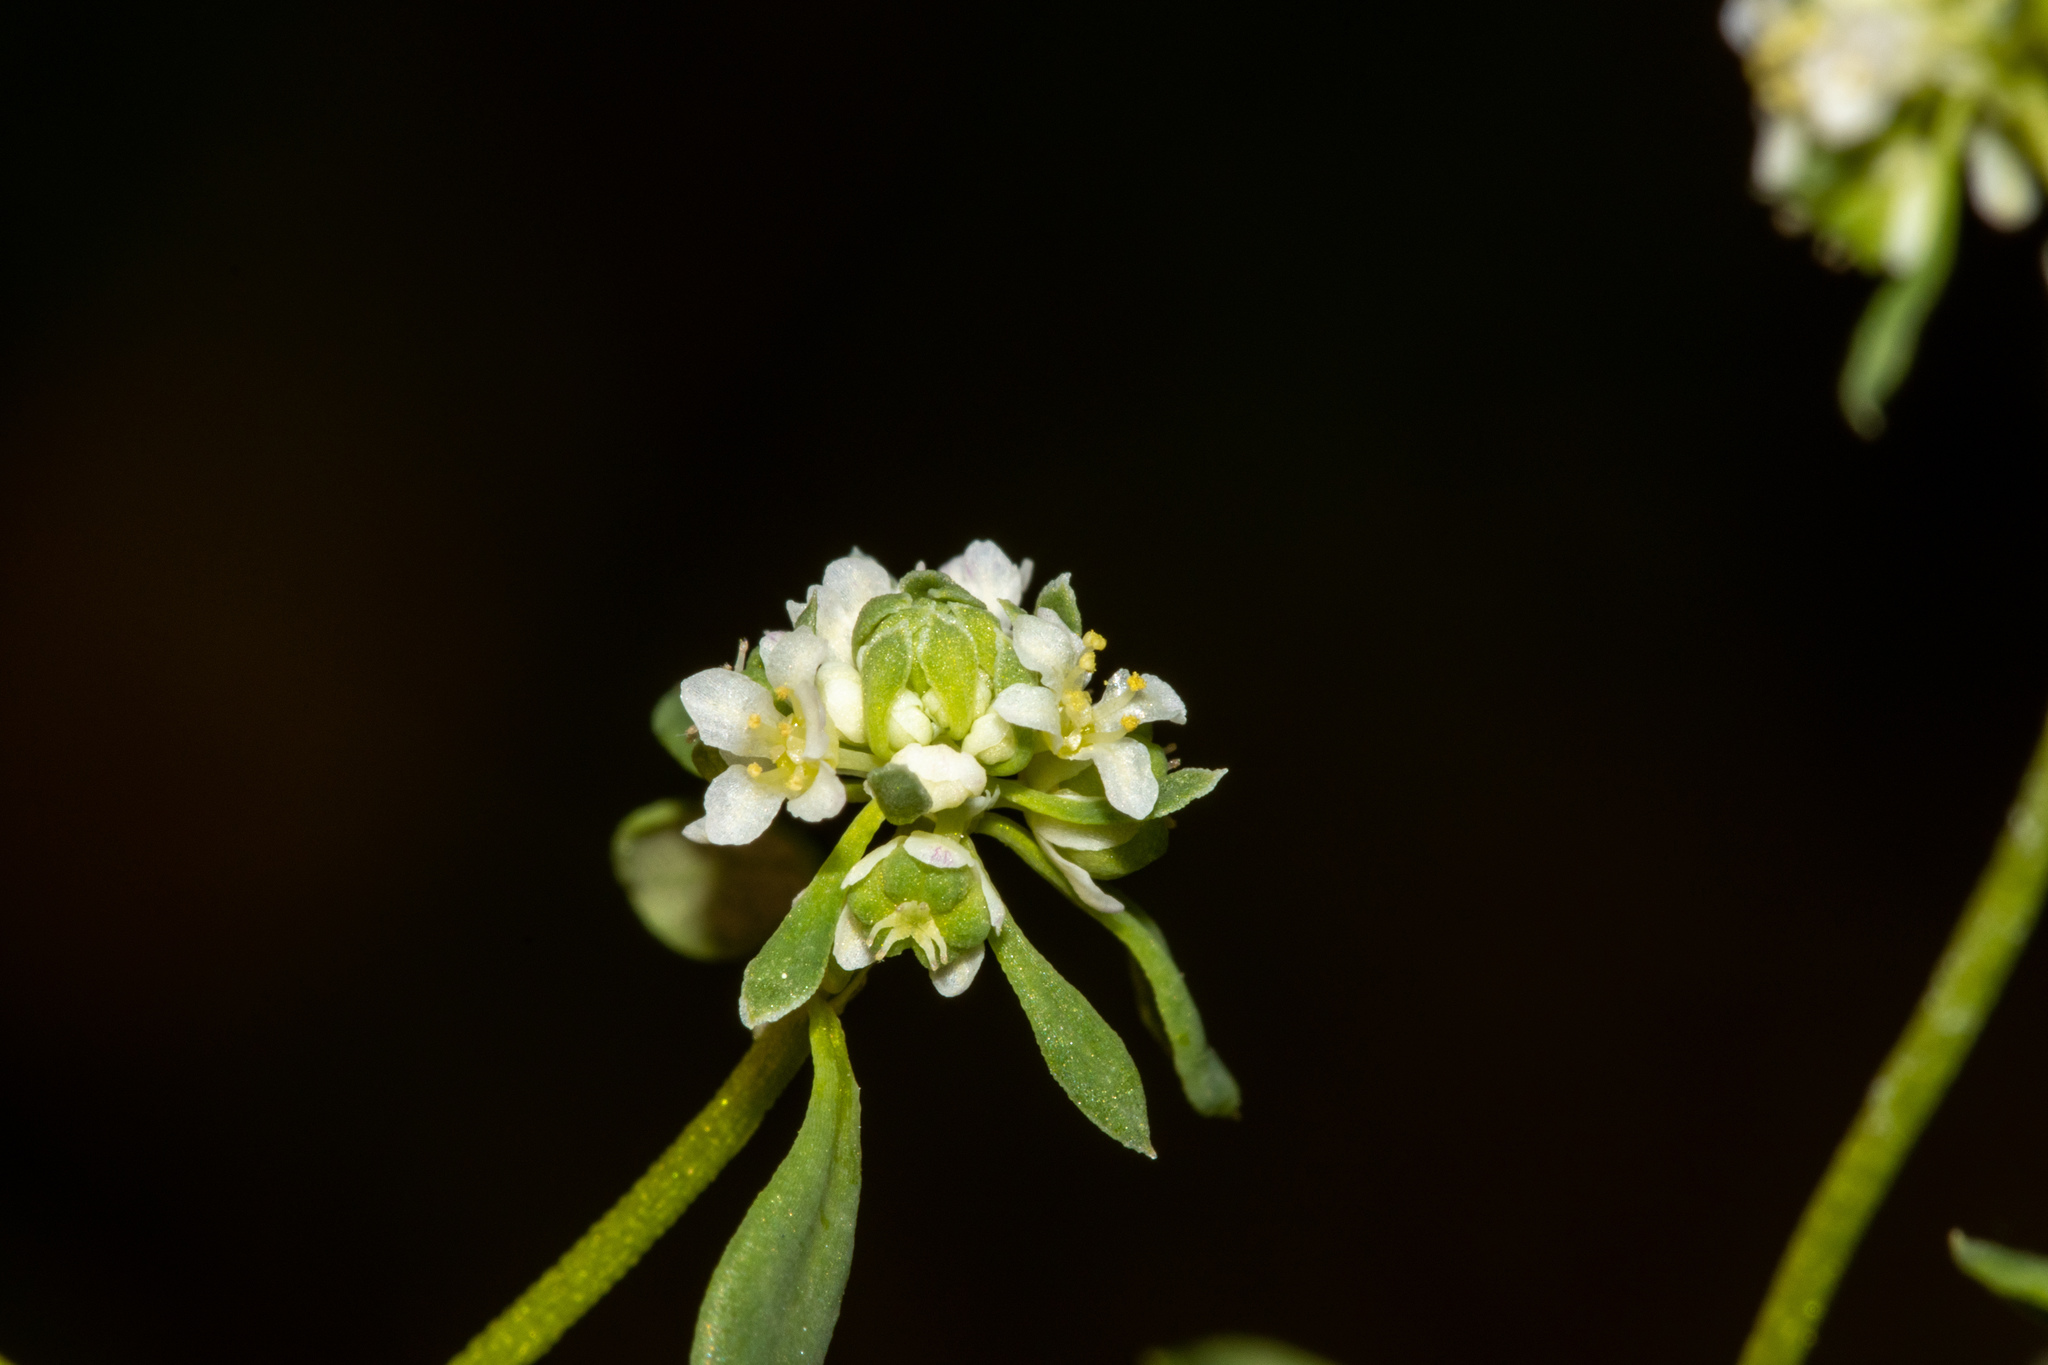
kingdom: Plantae
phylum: Tracheophyta
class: Magnoliopsida
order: Malpighiales
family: Phyllanthaceae
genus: Poranthera
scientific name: Poranthera microphylla
